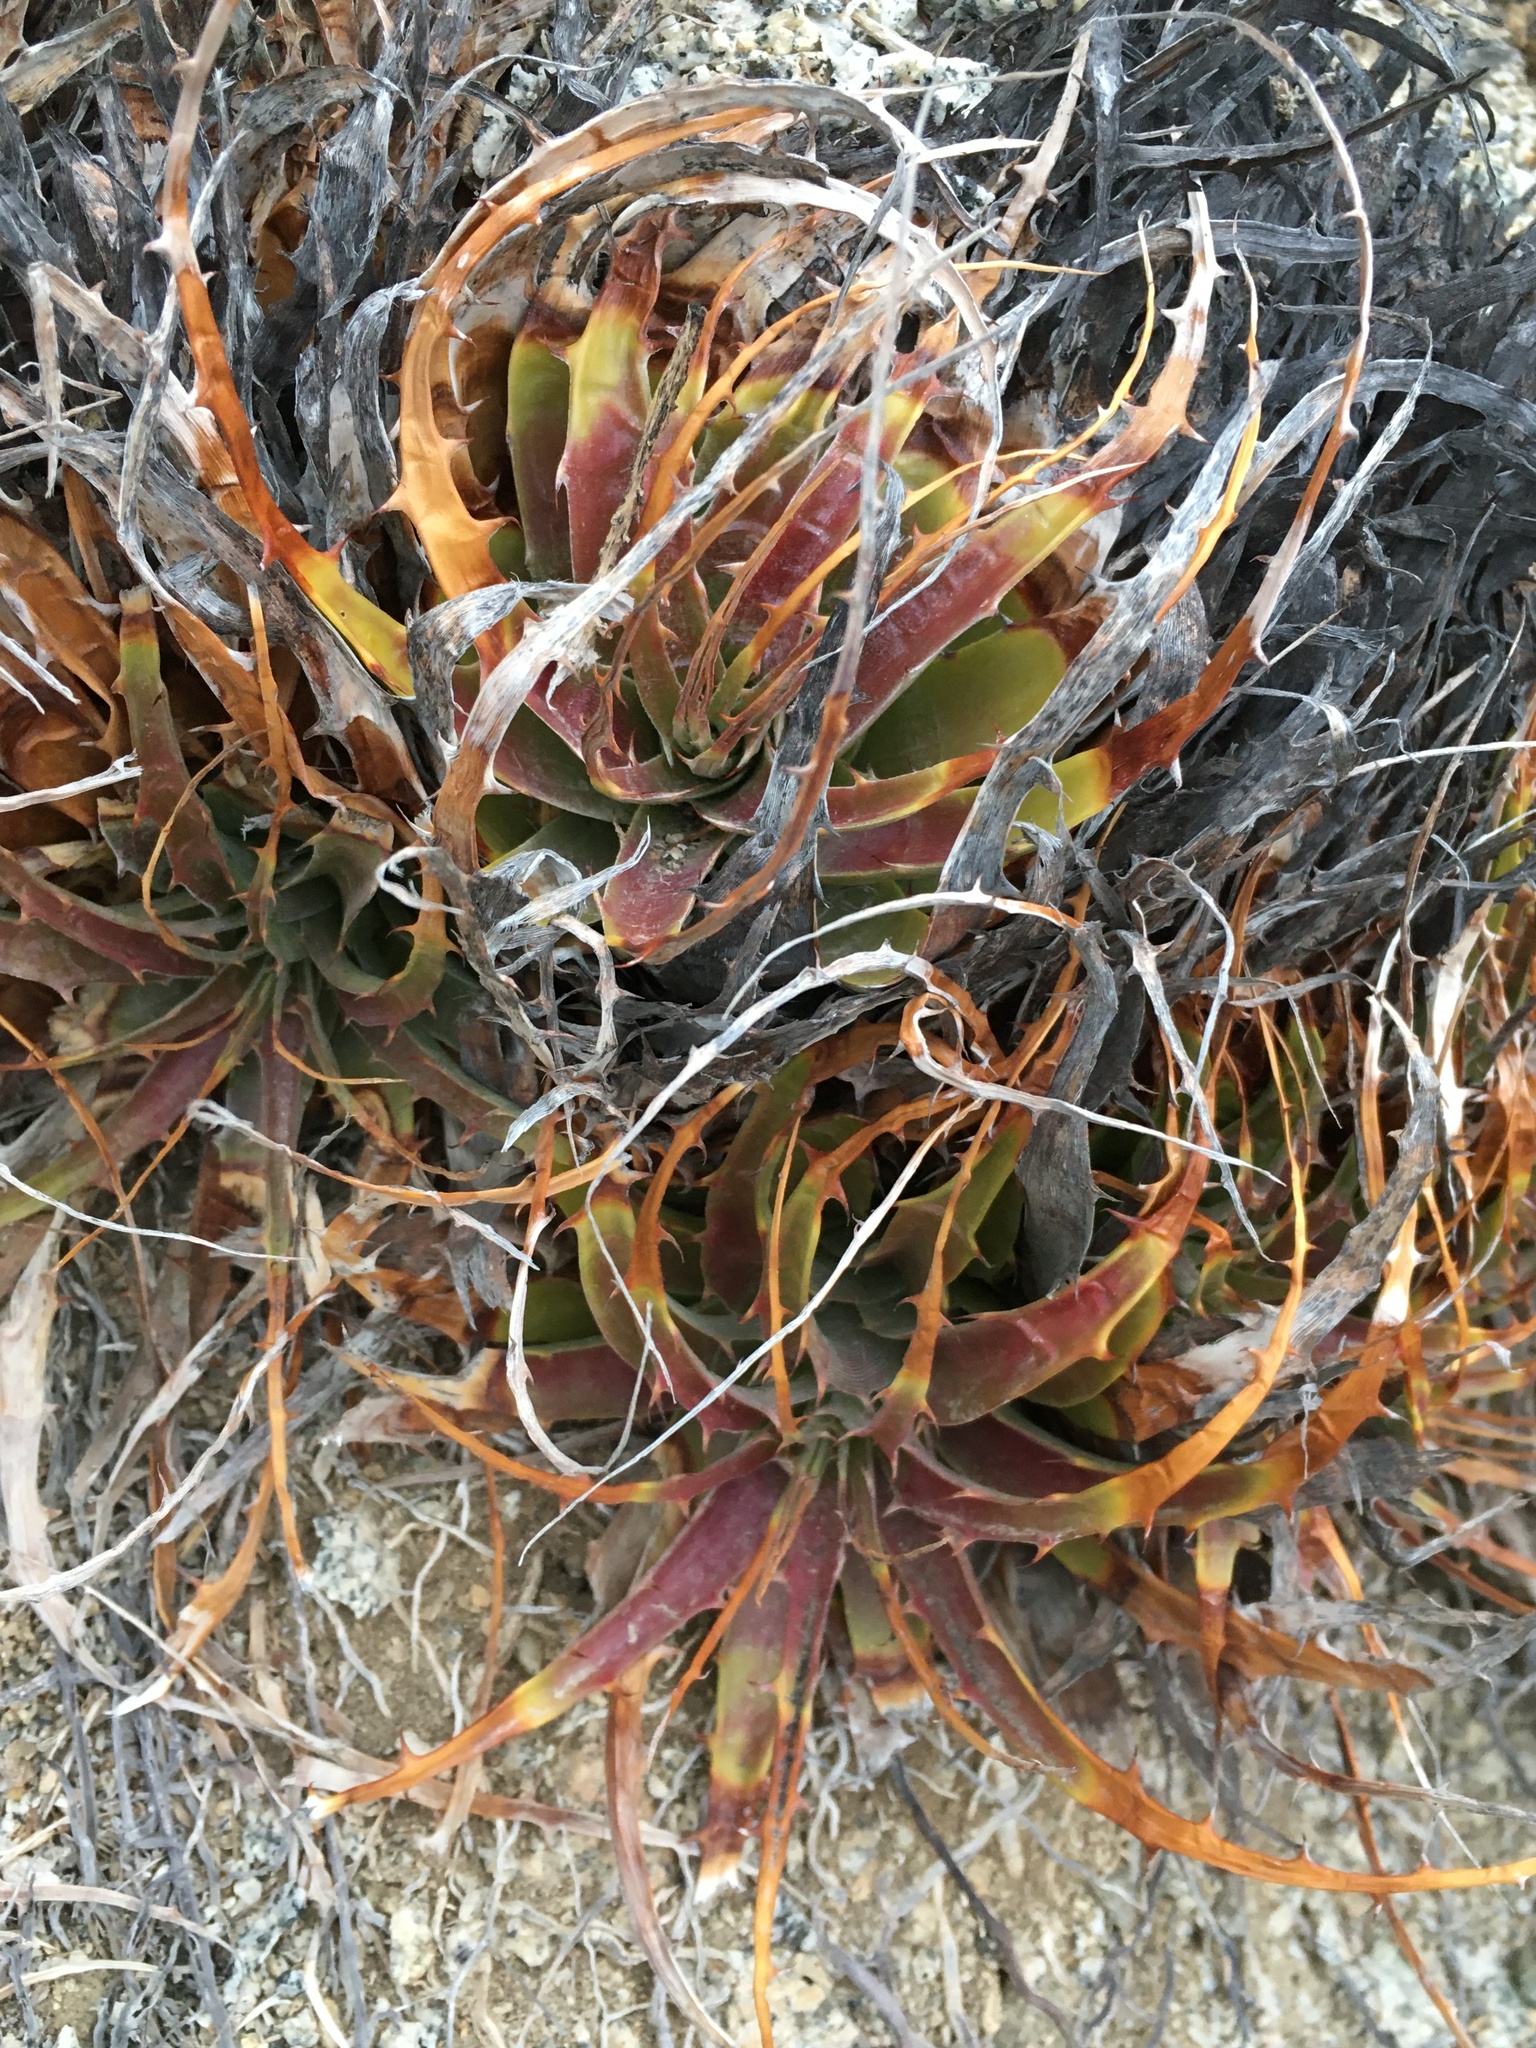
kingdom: Plantae
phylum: Tracheophyta
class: Liliopsida
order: Poales
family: Bromeliaceae
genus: Deuterocohnia
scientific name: Deuterocohnia chrysantha
